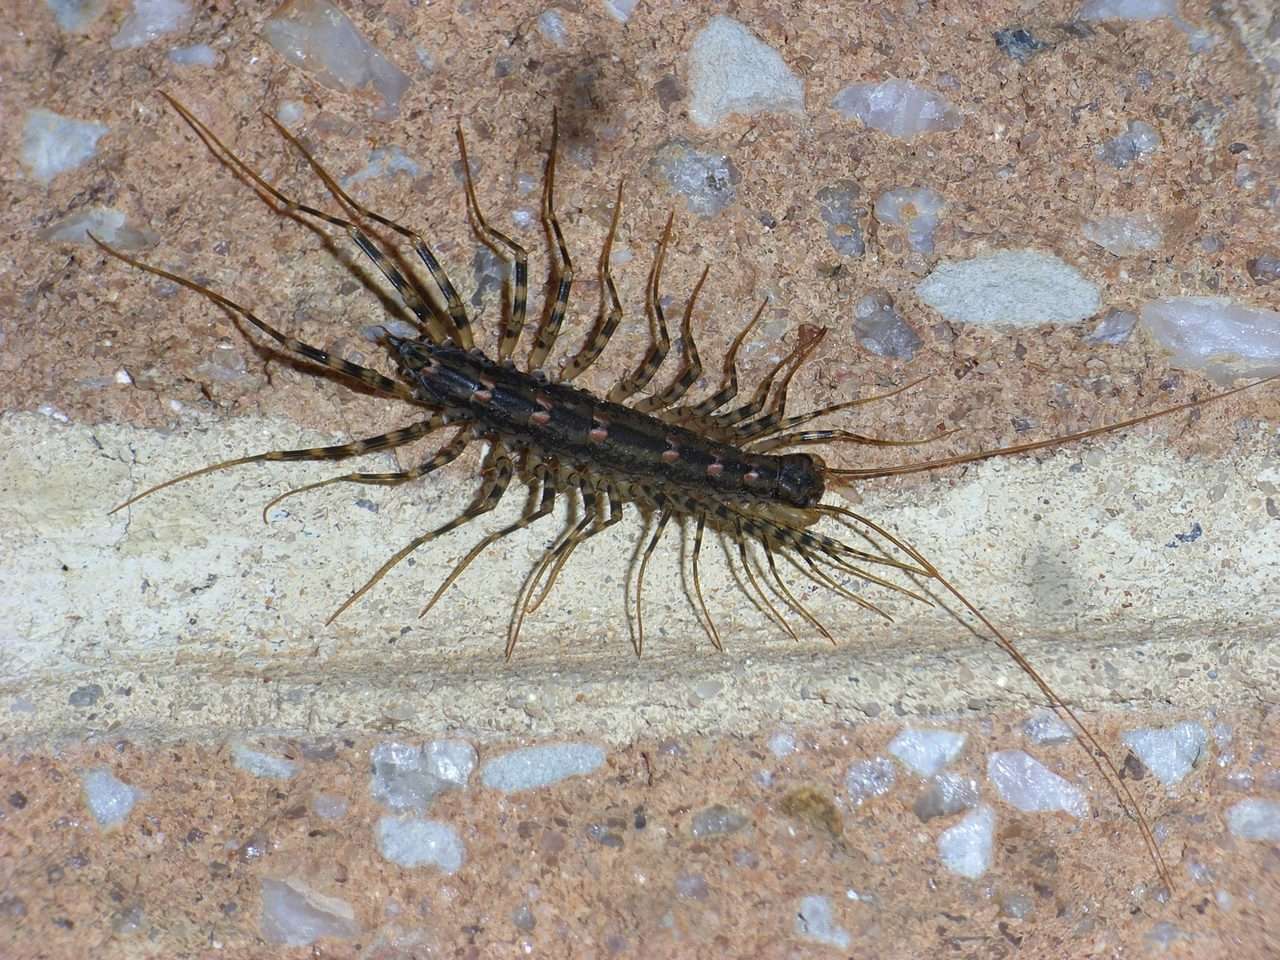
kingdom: Animalia
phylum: Arthropoda
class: Chilopoda
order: Scutigeromorpha
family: Scutigeridae
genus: Allothereua
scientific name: Allothereua maculata
